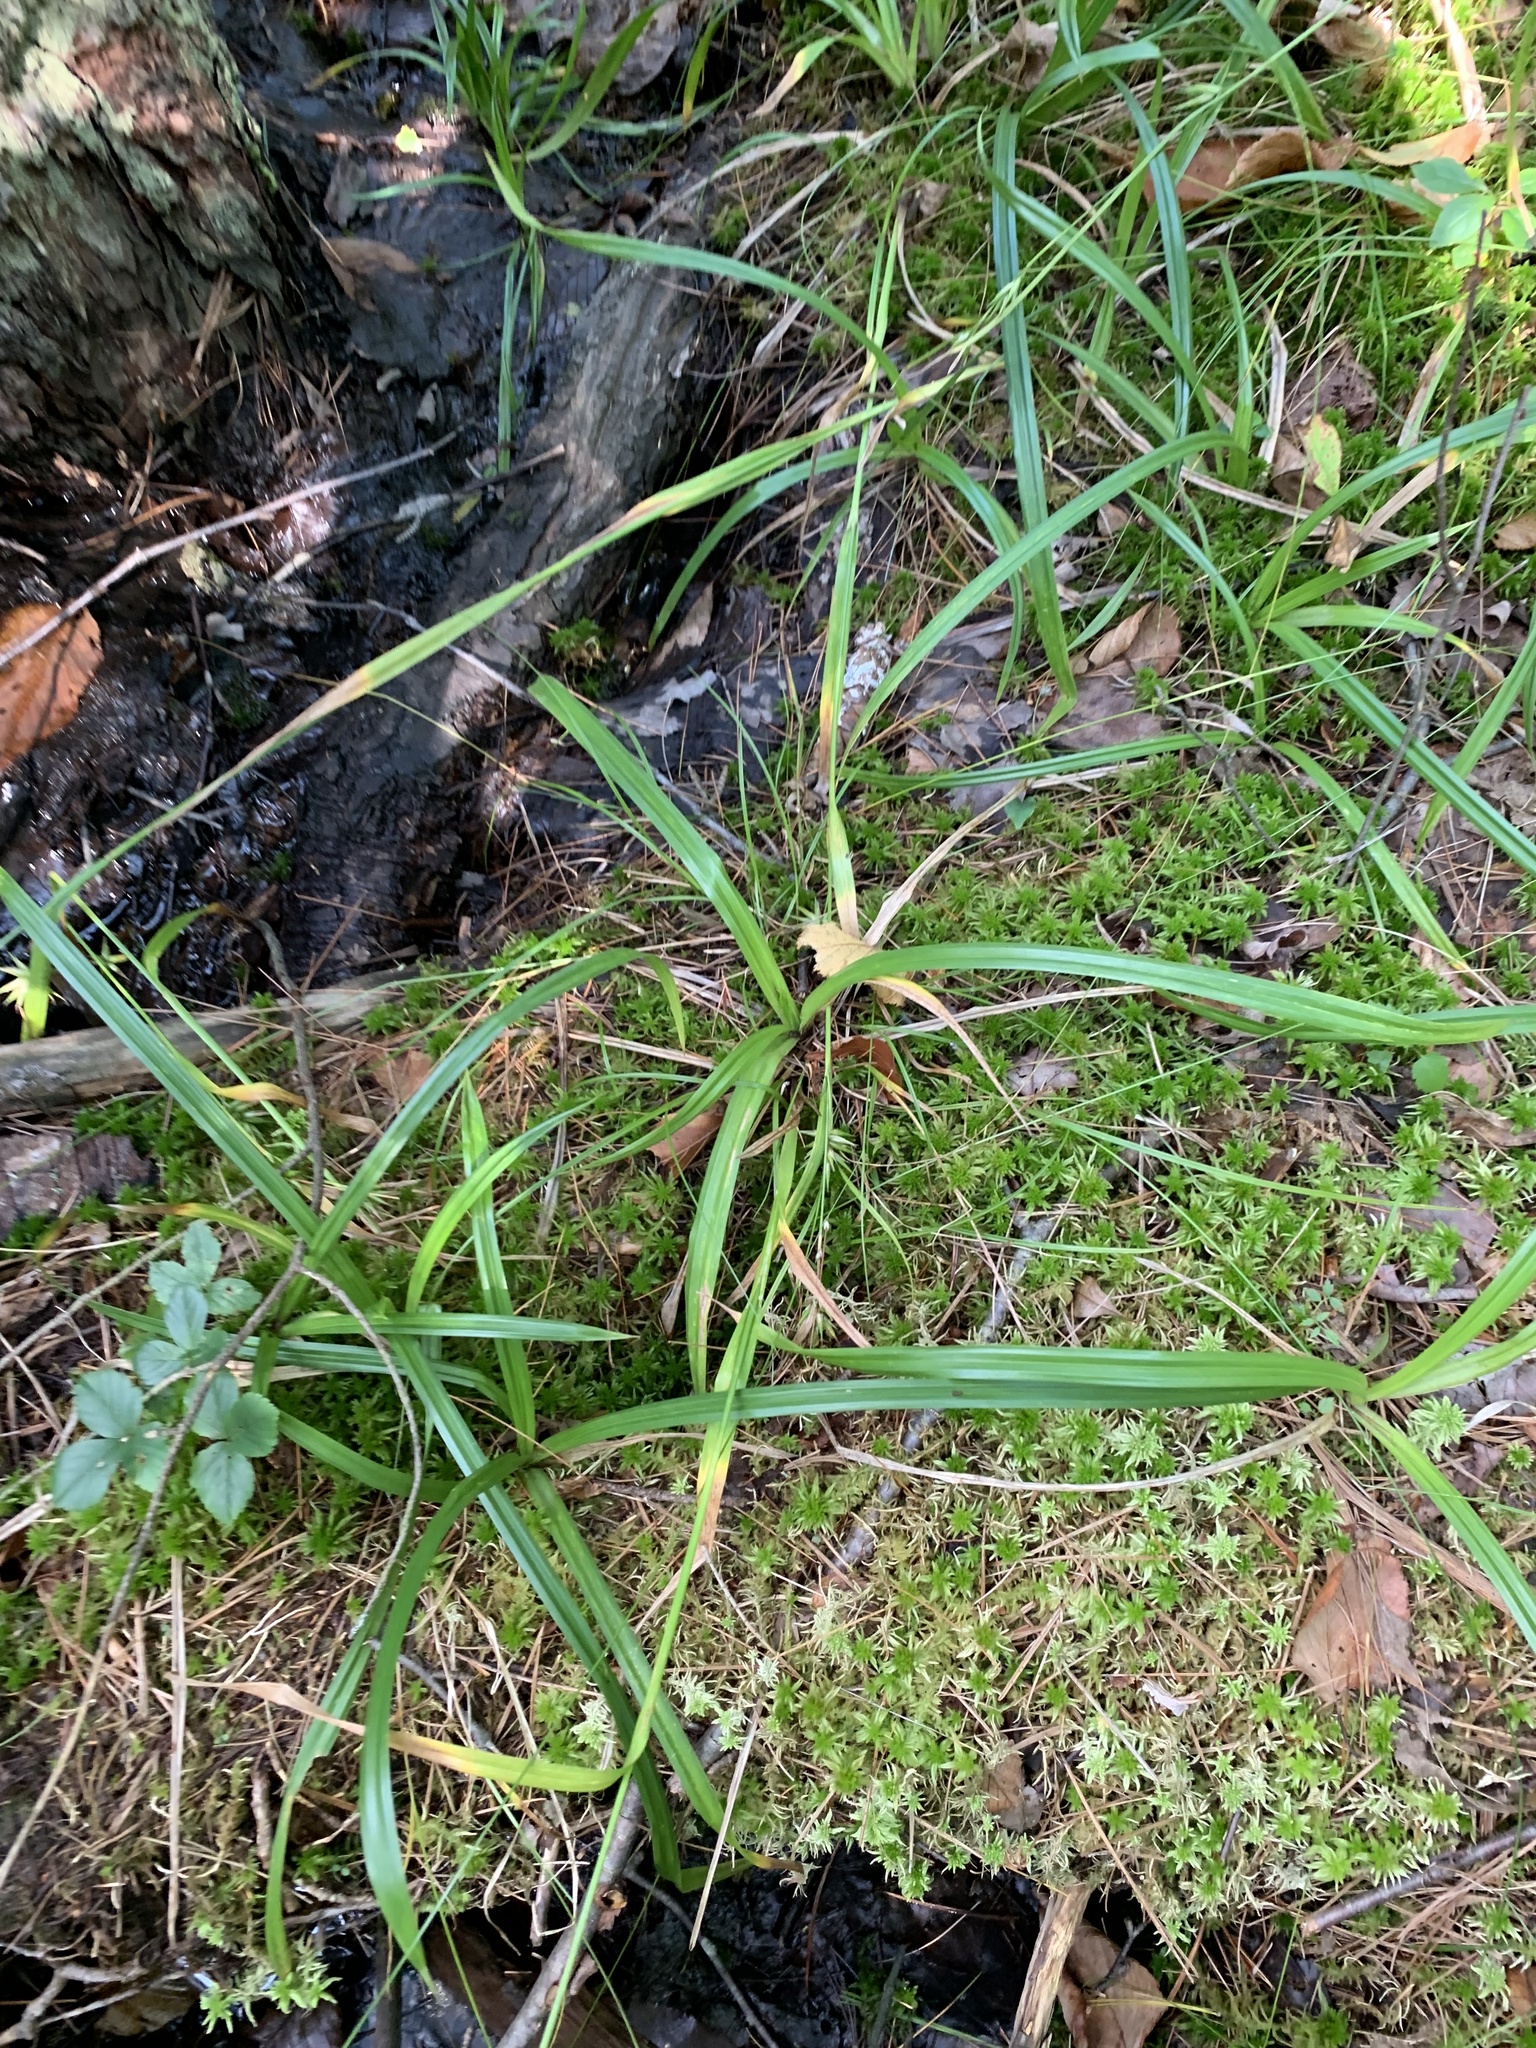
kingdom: Plantae
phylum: Tracheophyta
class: Liliopsida
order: Poales
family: Cyperaceae
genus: Carex
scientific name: Carex folliculata
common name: Northern long sedge
